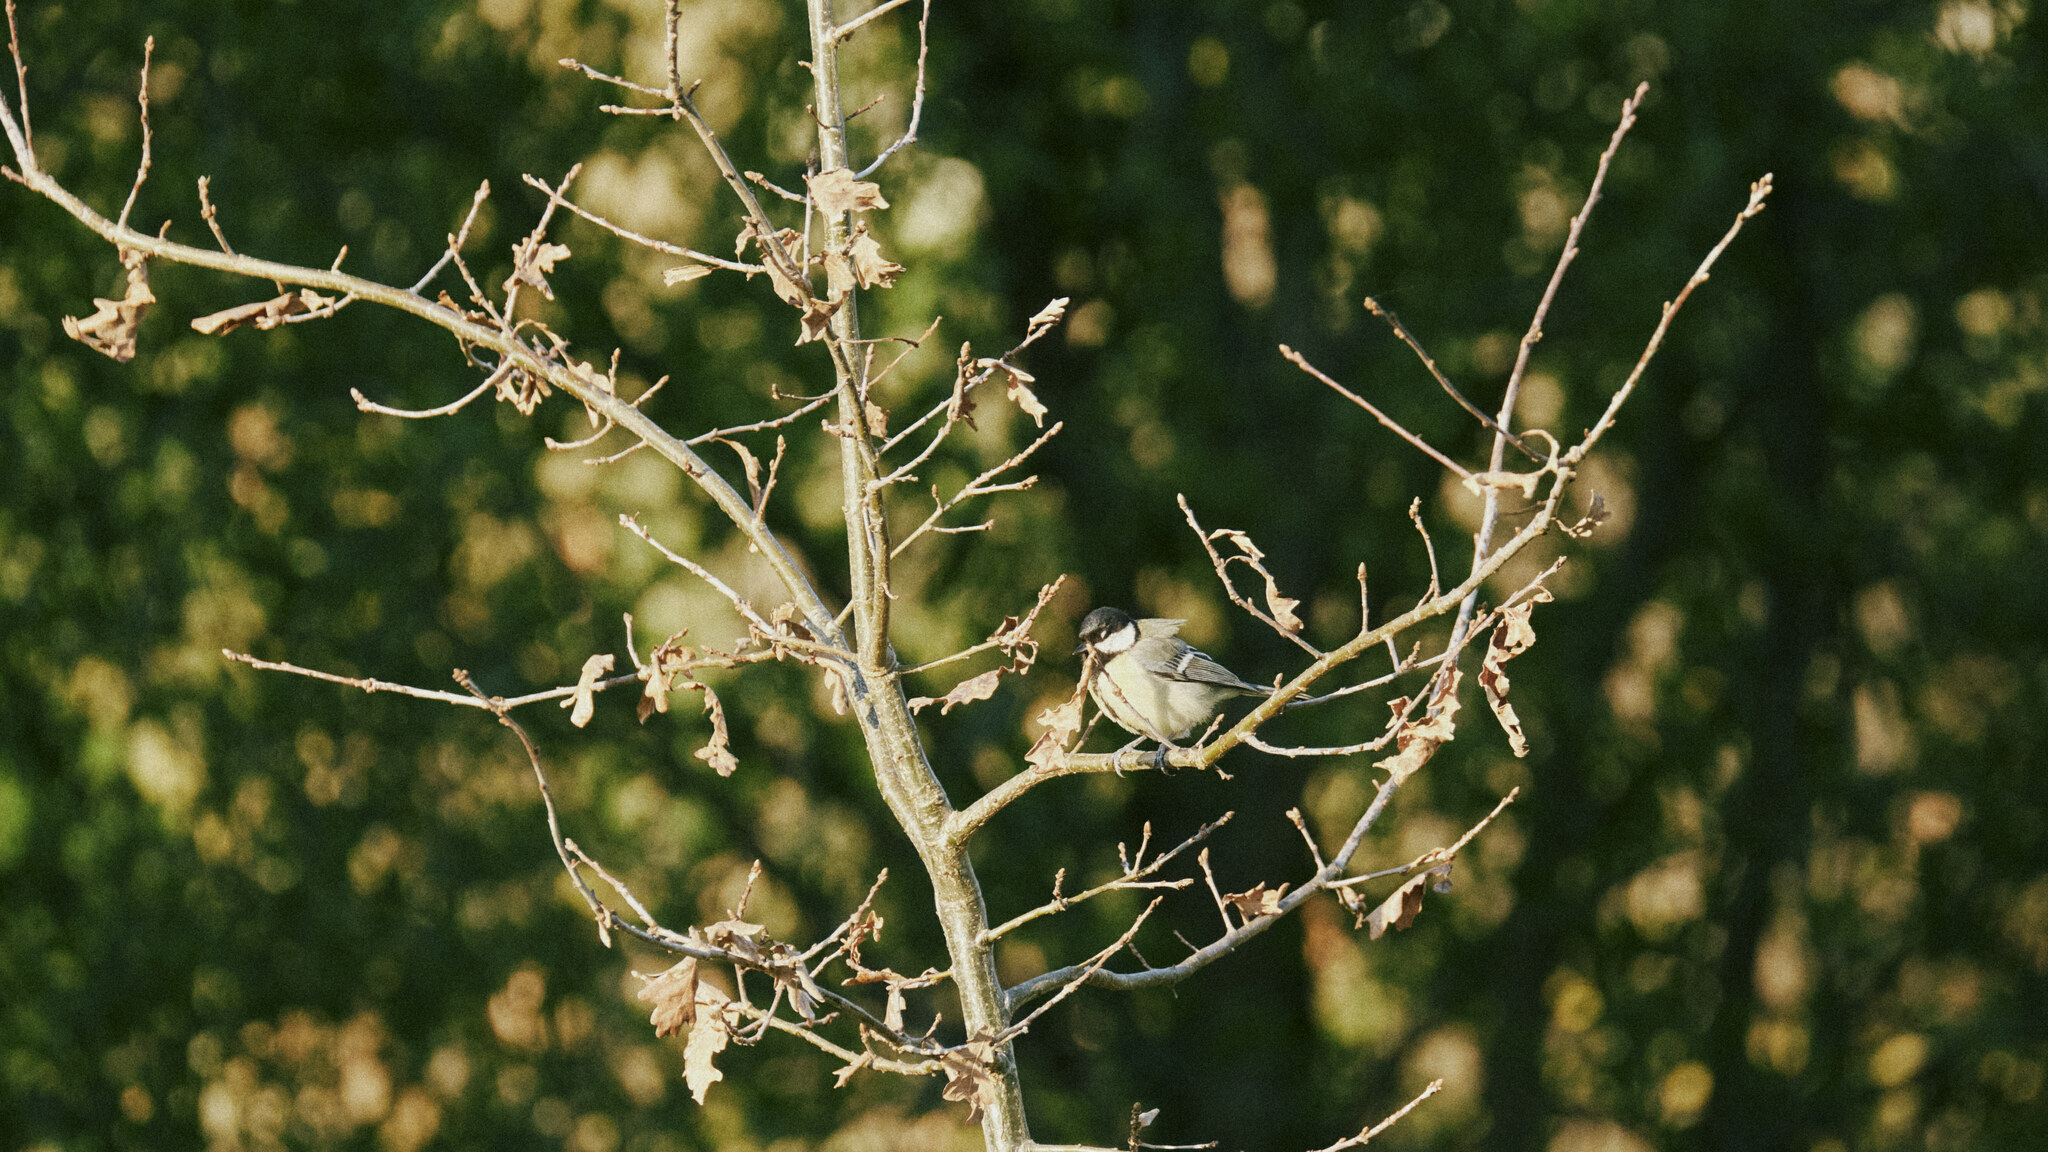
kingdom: Animalia
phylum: Chordata
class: Aves
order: Passeriformes
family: Paridae
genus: Parus
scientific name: Parus major
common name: Great tit
